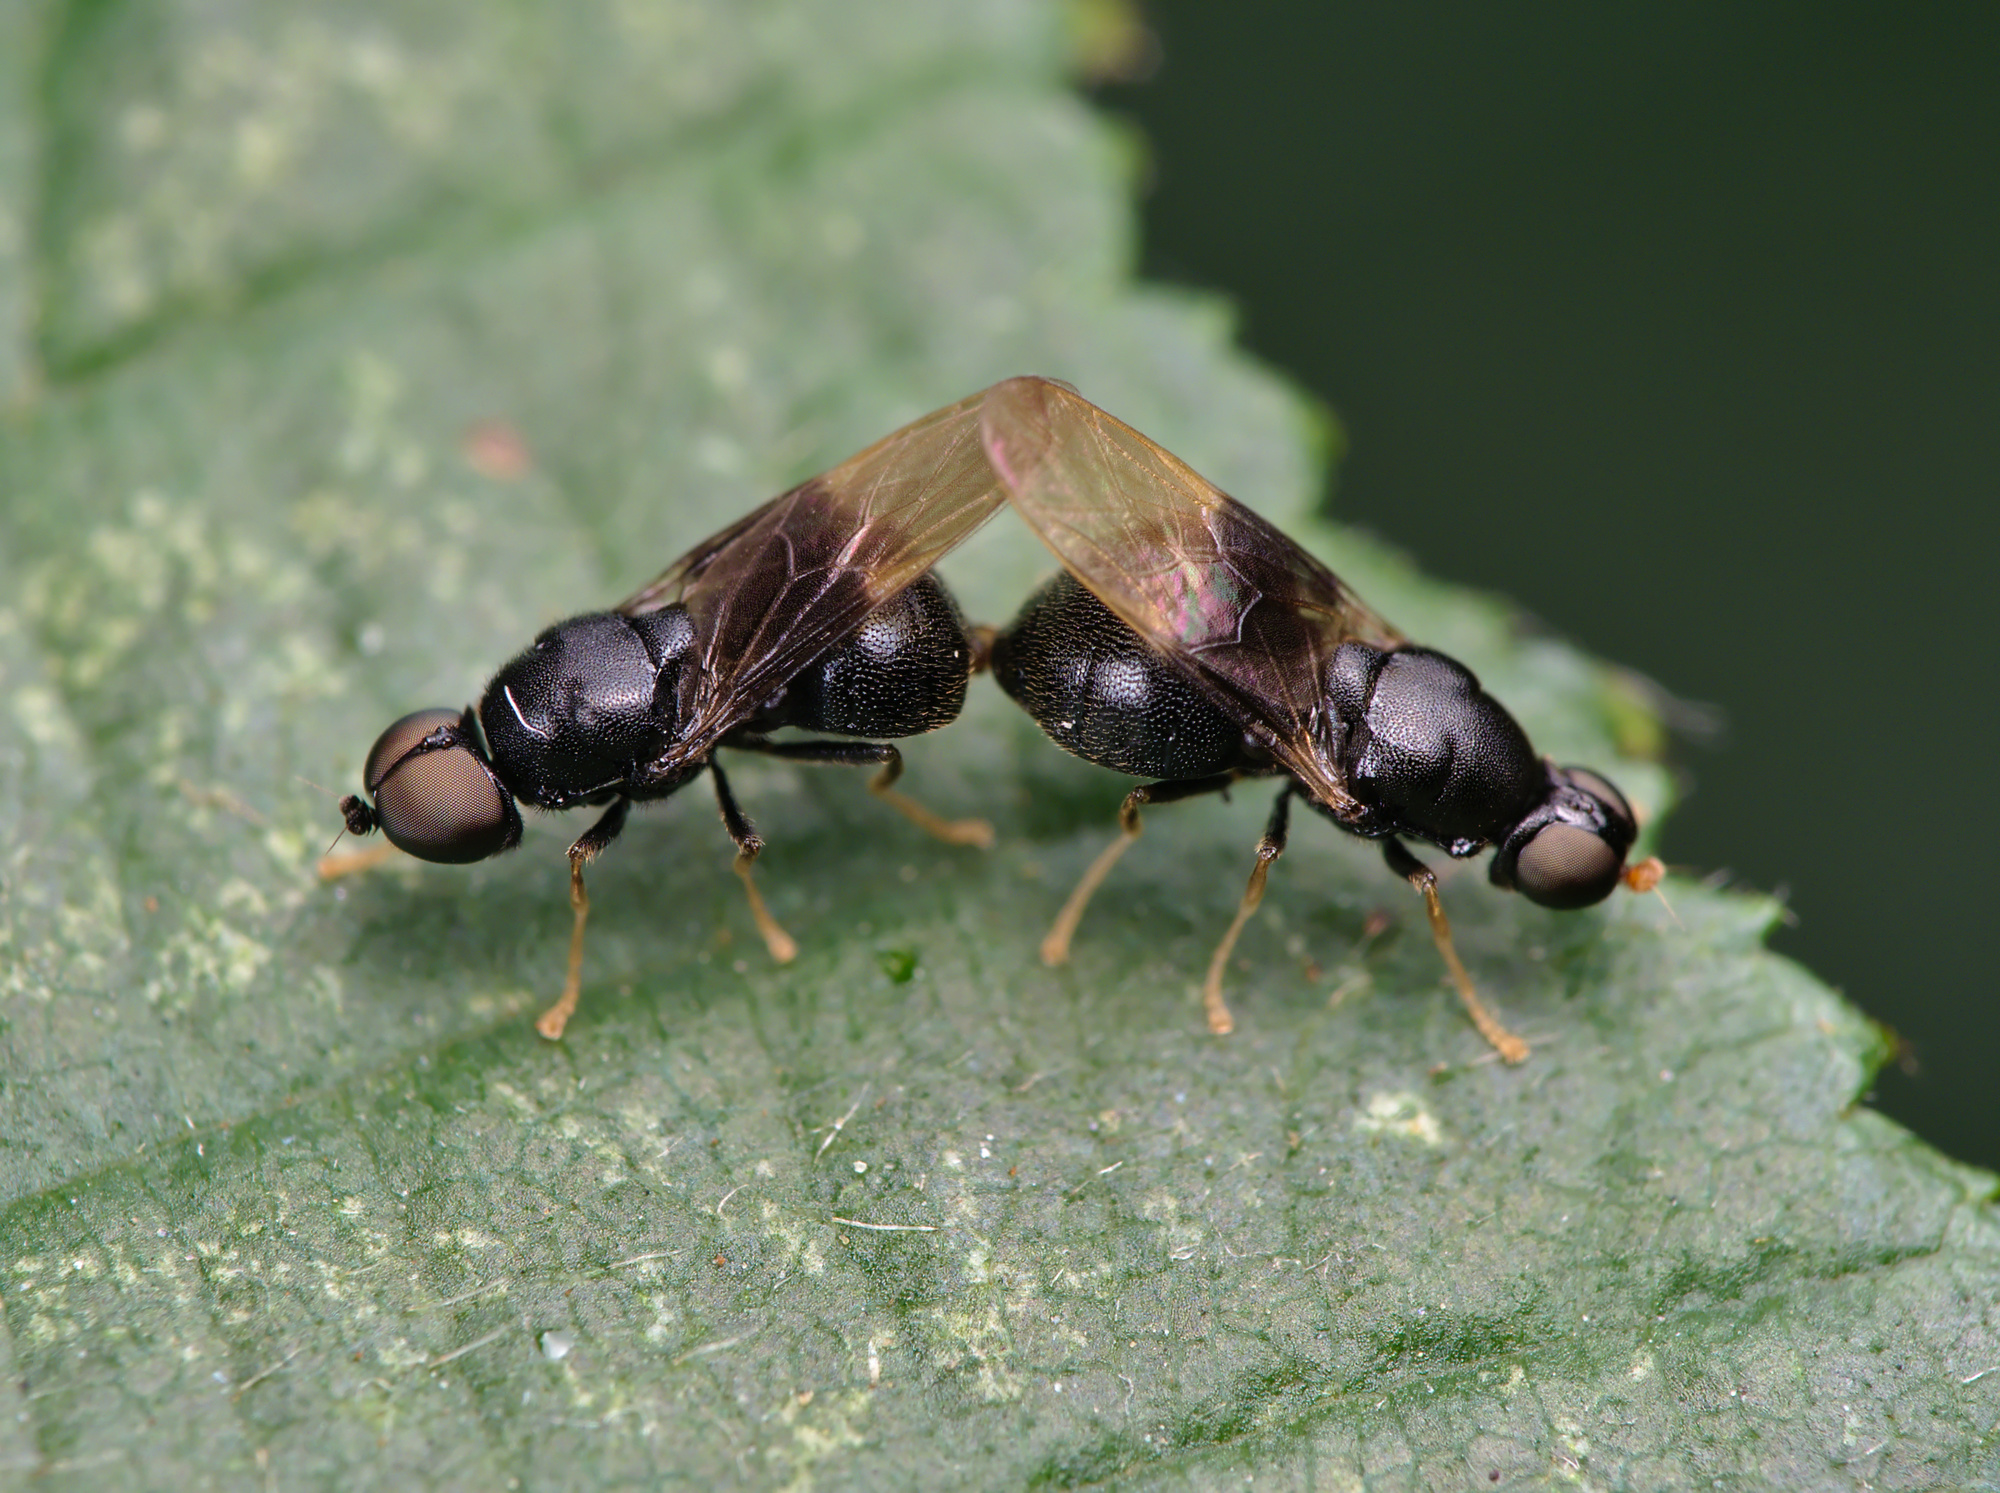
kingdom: Animalia
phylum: Arthropoda
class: Insecta
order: Diptera
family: Stratiomyidae
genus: Pachygaster
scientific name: Pachygaster atra
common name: Dark-winged black
